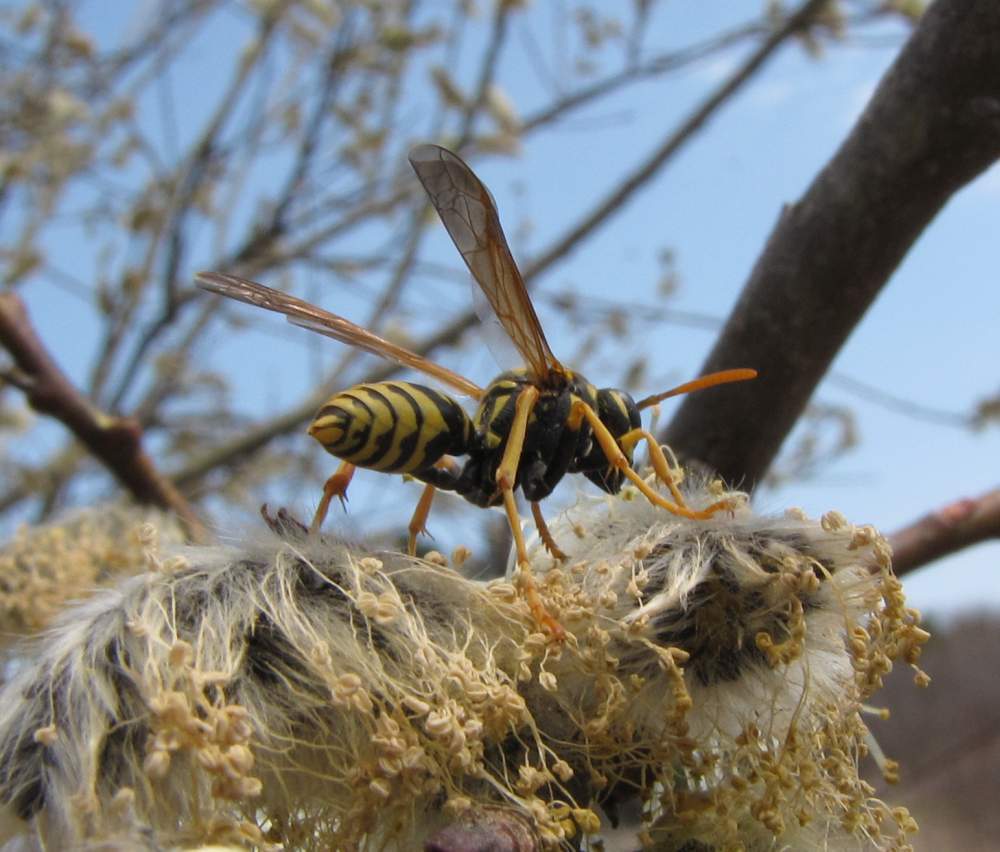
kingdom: Animalia
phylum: Arthropoda
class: Insecta
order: Hymenoptera
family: Eumenidae
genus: Polistes
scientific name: Polistes dominula
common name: Paper wasp
